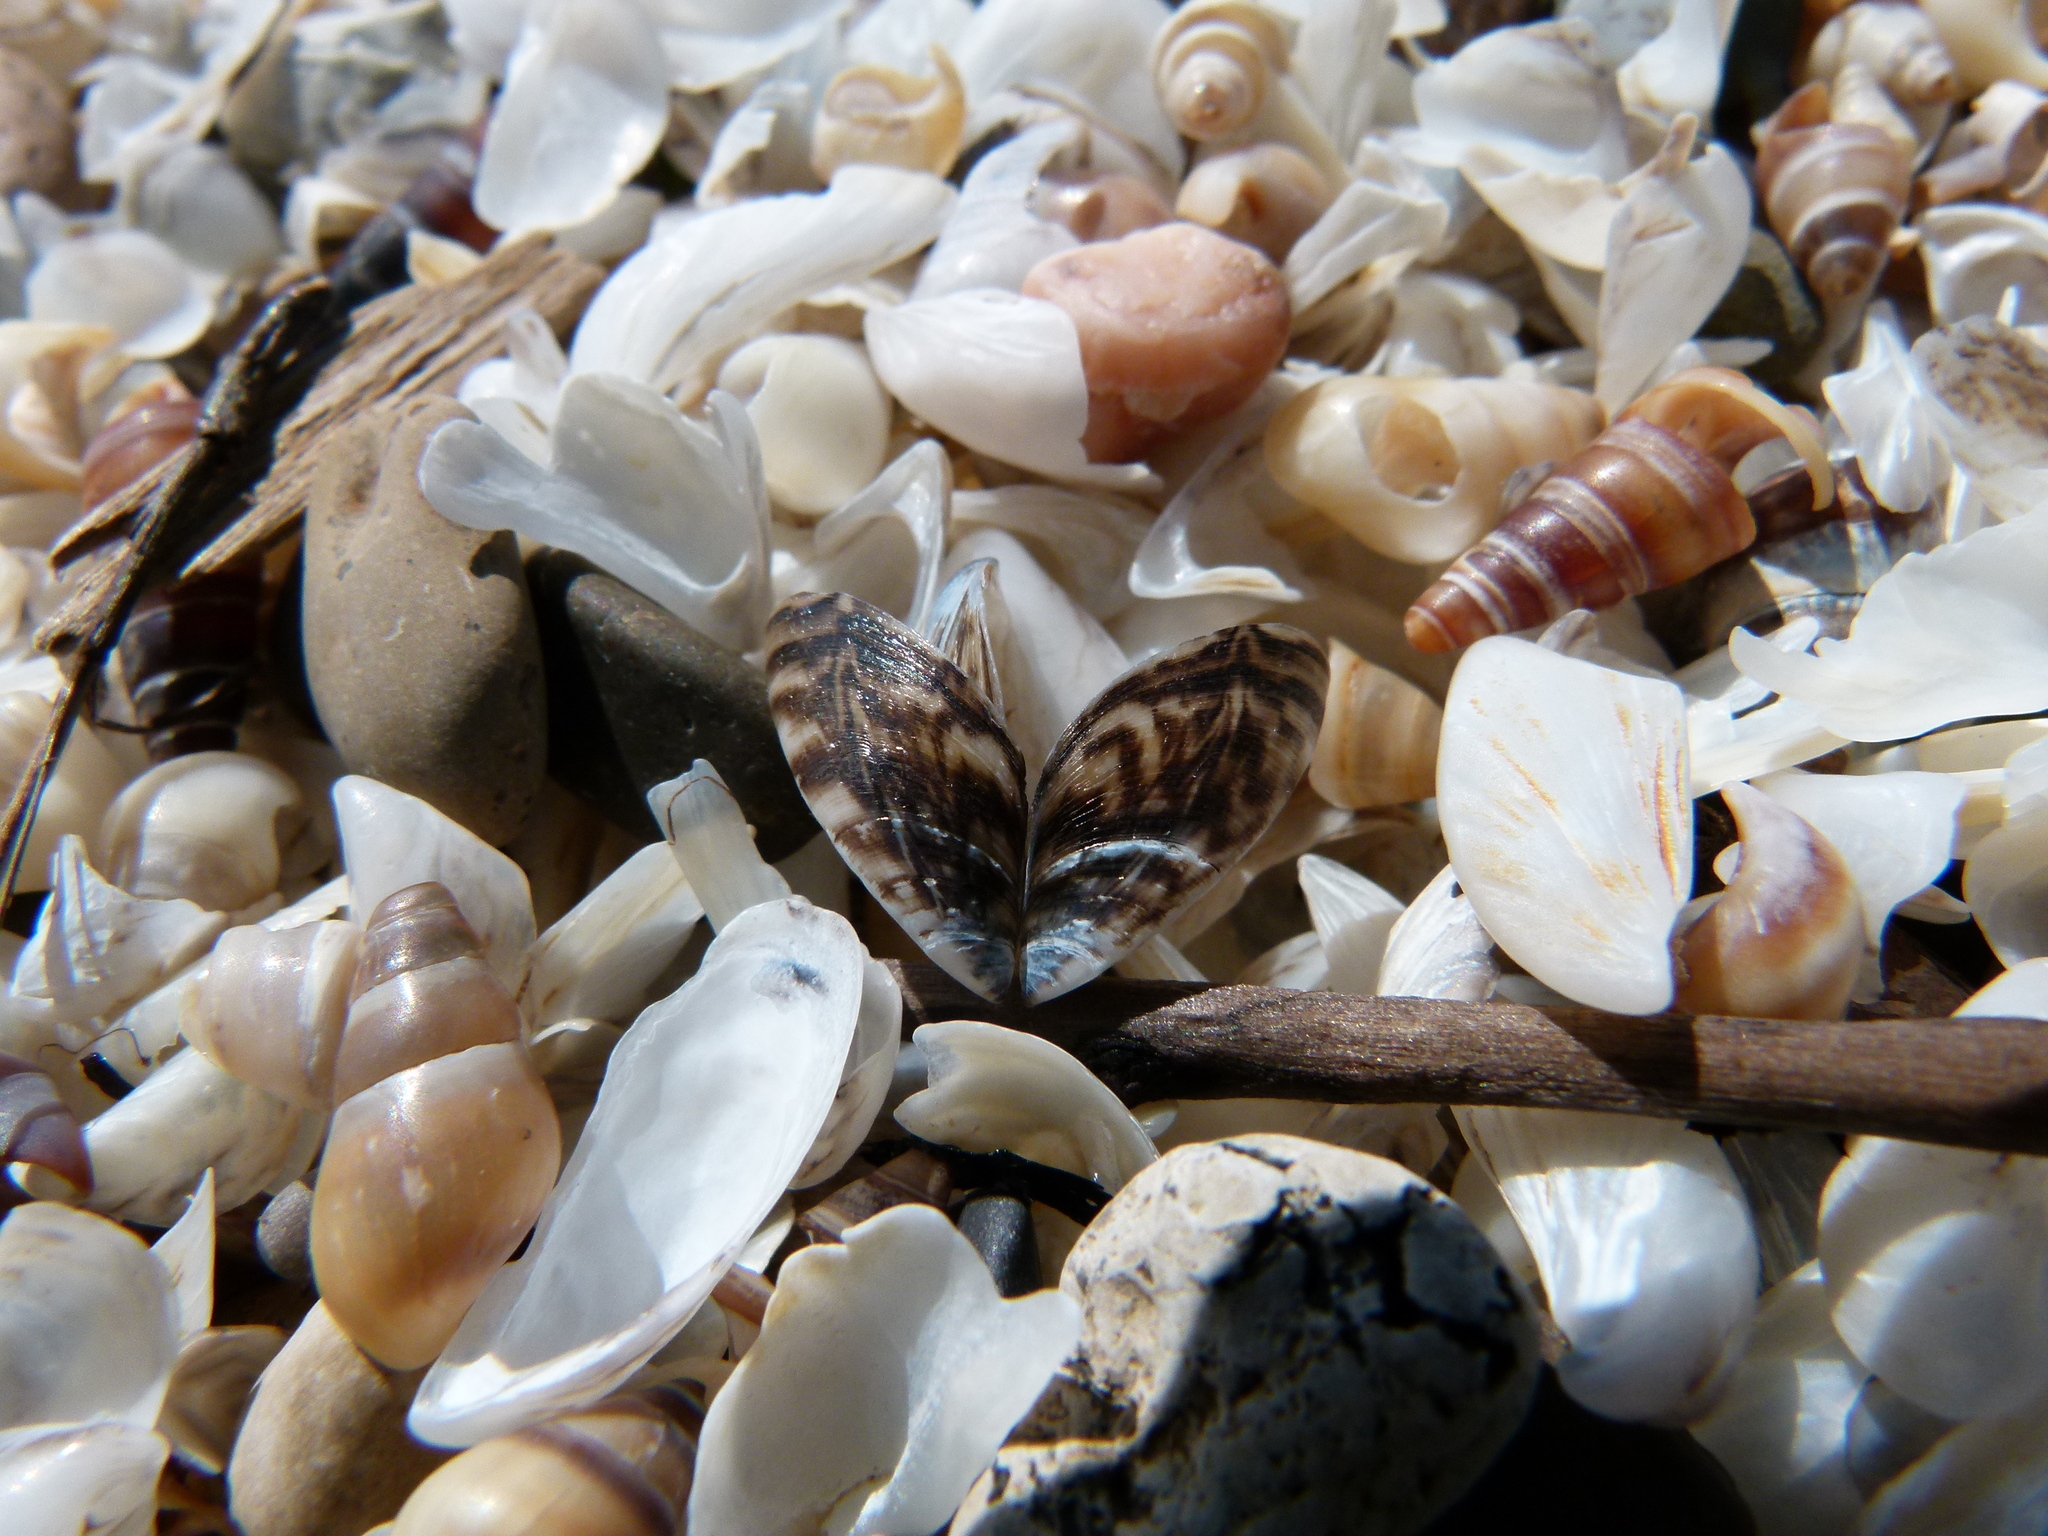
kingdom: Animalia
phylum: Mollusca
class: Bivalvia
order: Myida
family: Dreissenidae
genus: Dreissena
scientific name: Dreissena polymorpha
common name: Zebra mussel
